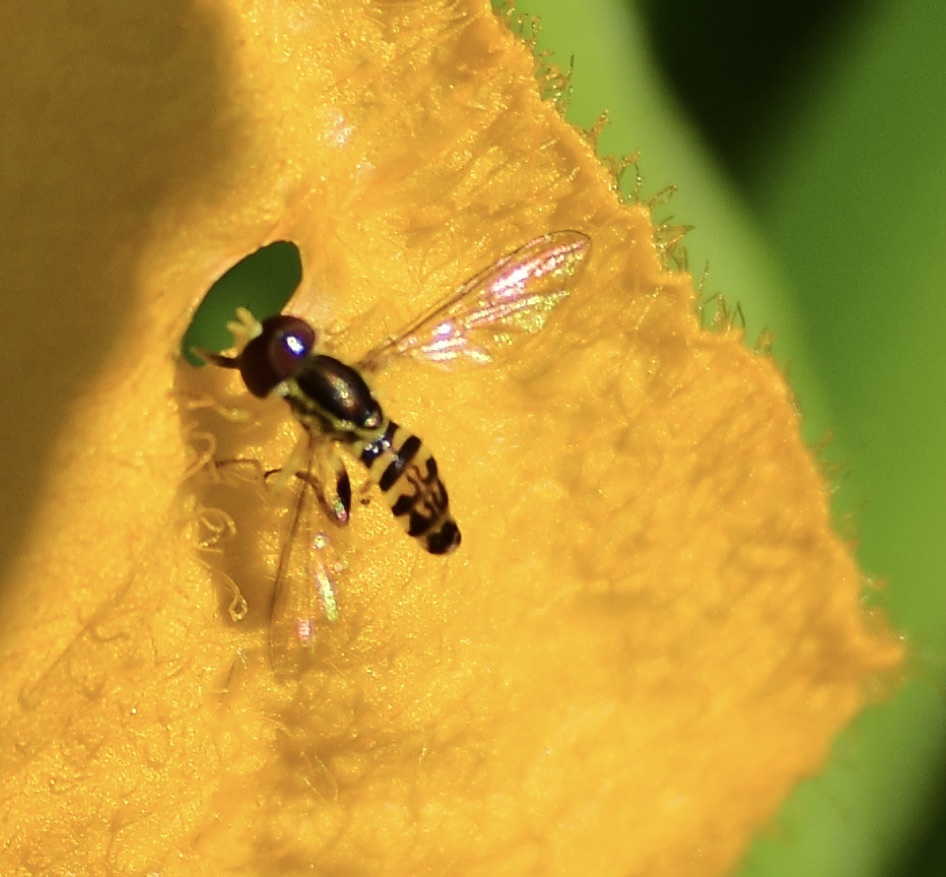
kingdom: Animalia
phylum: Arthropoda
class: Insecta
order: Diptera
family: Syrphidae
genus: Toxomerus
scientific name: Toxomerus geminatus
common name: Eastern calligrapher
